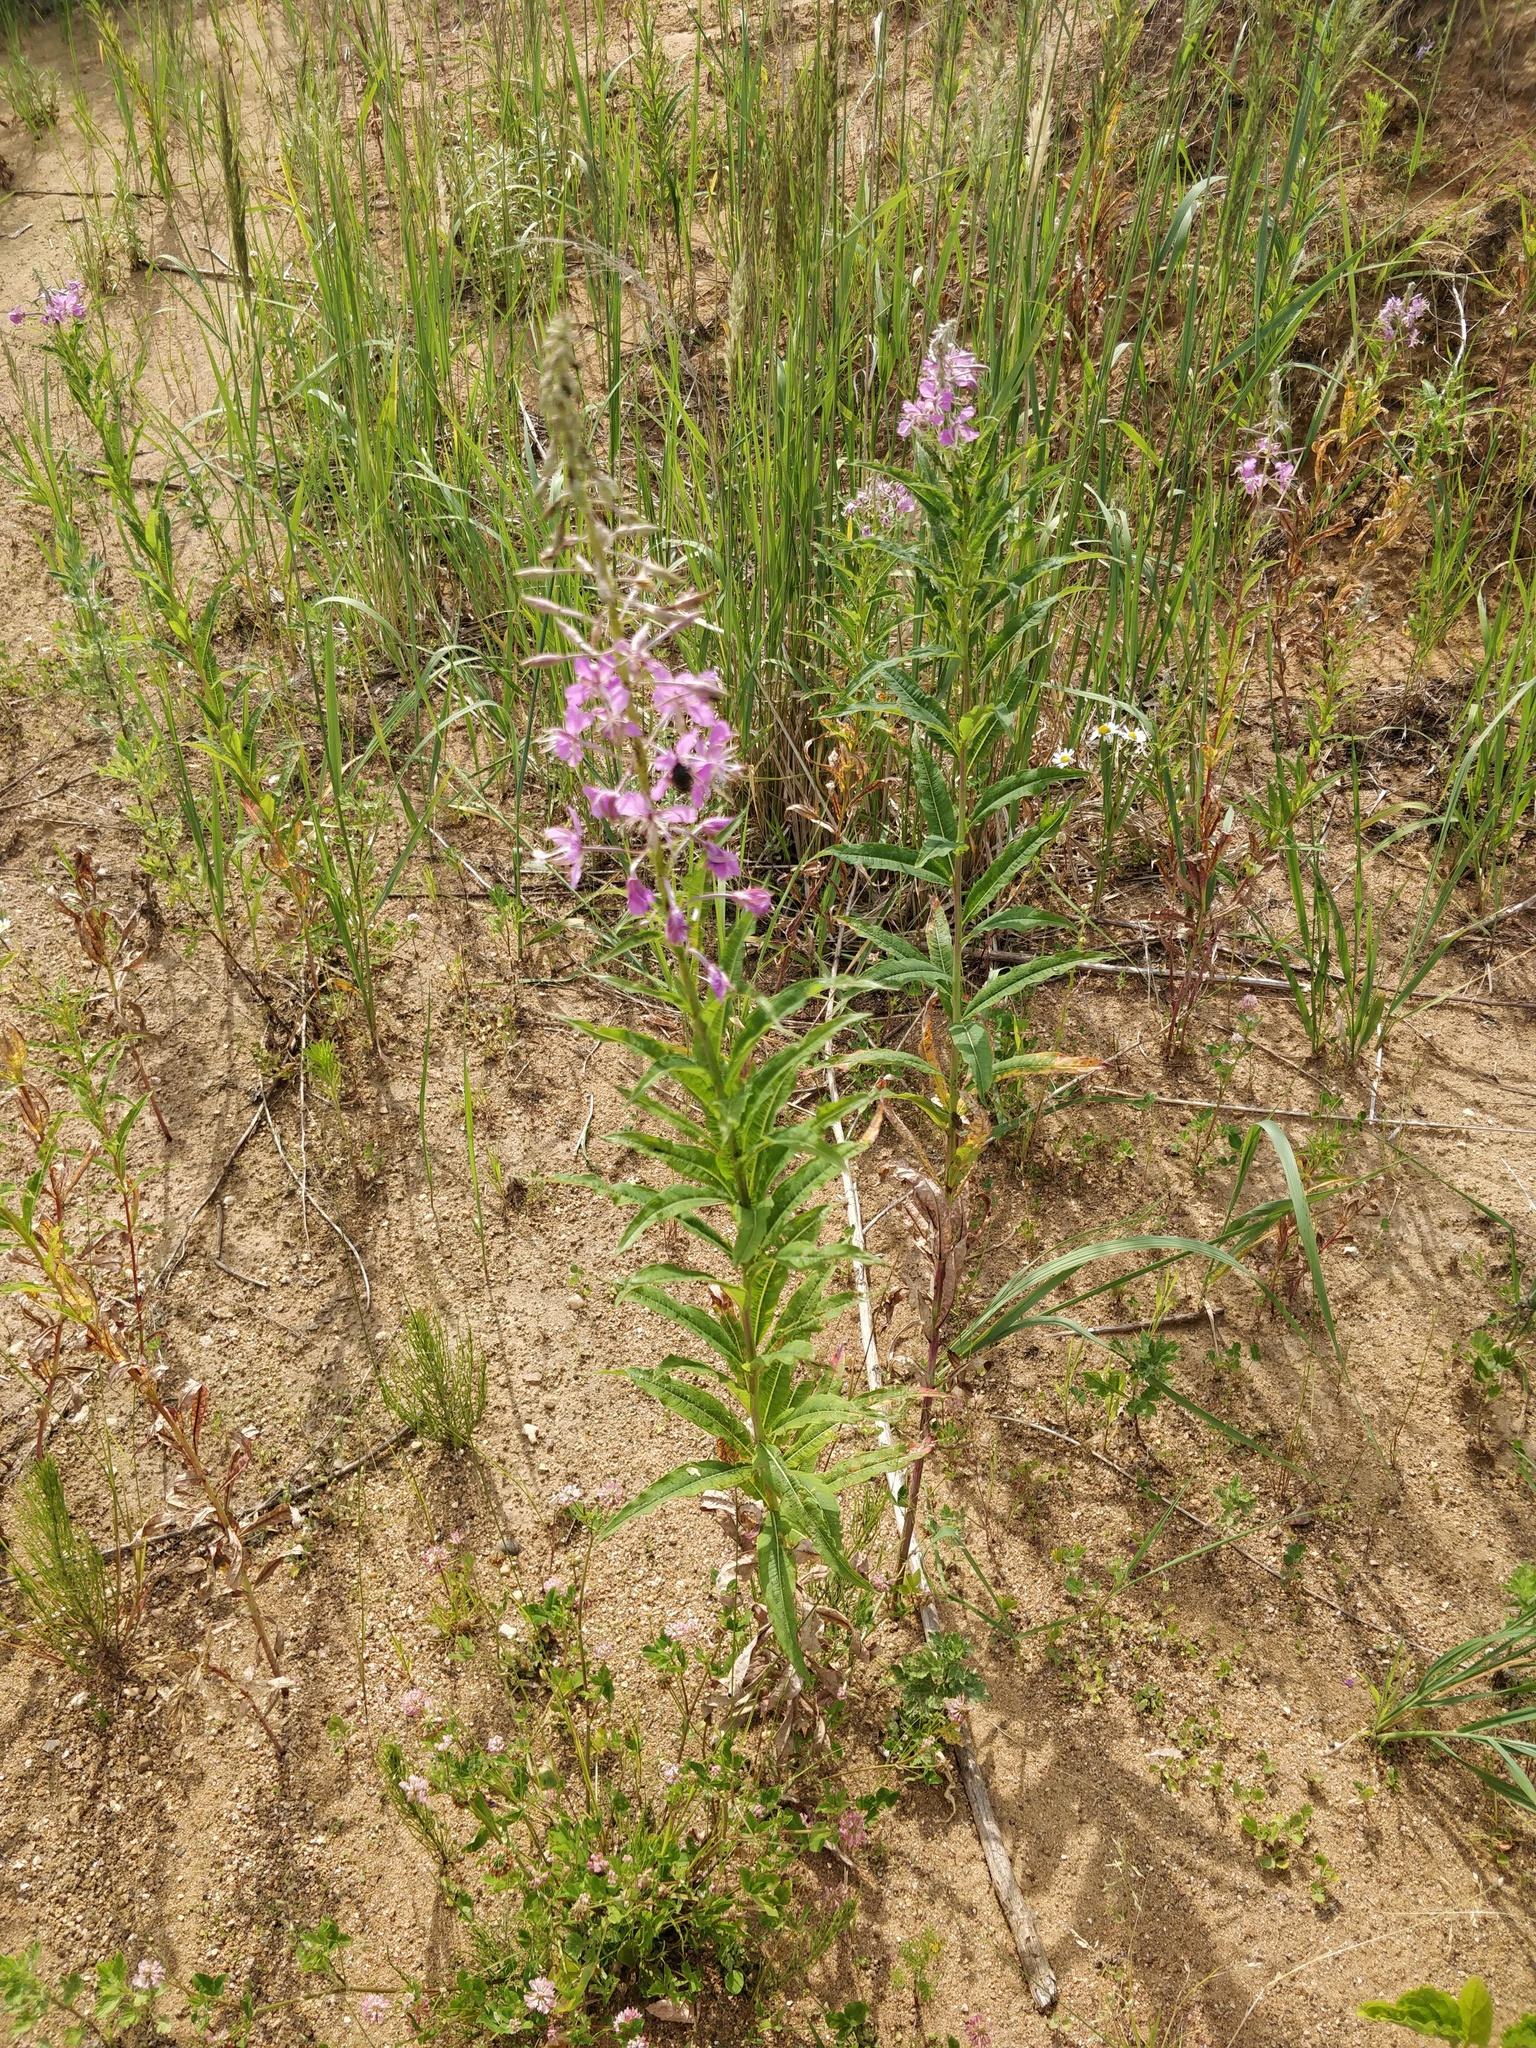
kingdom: Plantae
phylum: Tracheophyta
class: Magnoliopsida
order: Myrtales
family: Onagraceae
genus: Chamaenerion
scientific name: Chamaenerion angustifolium
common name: Fireweed
